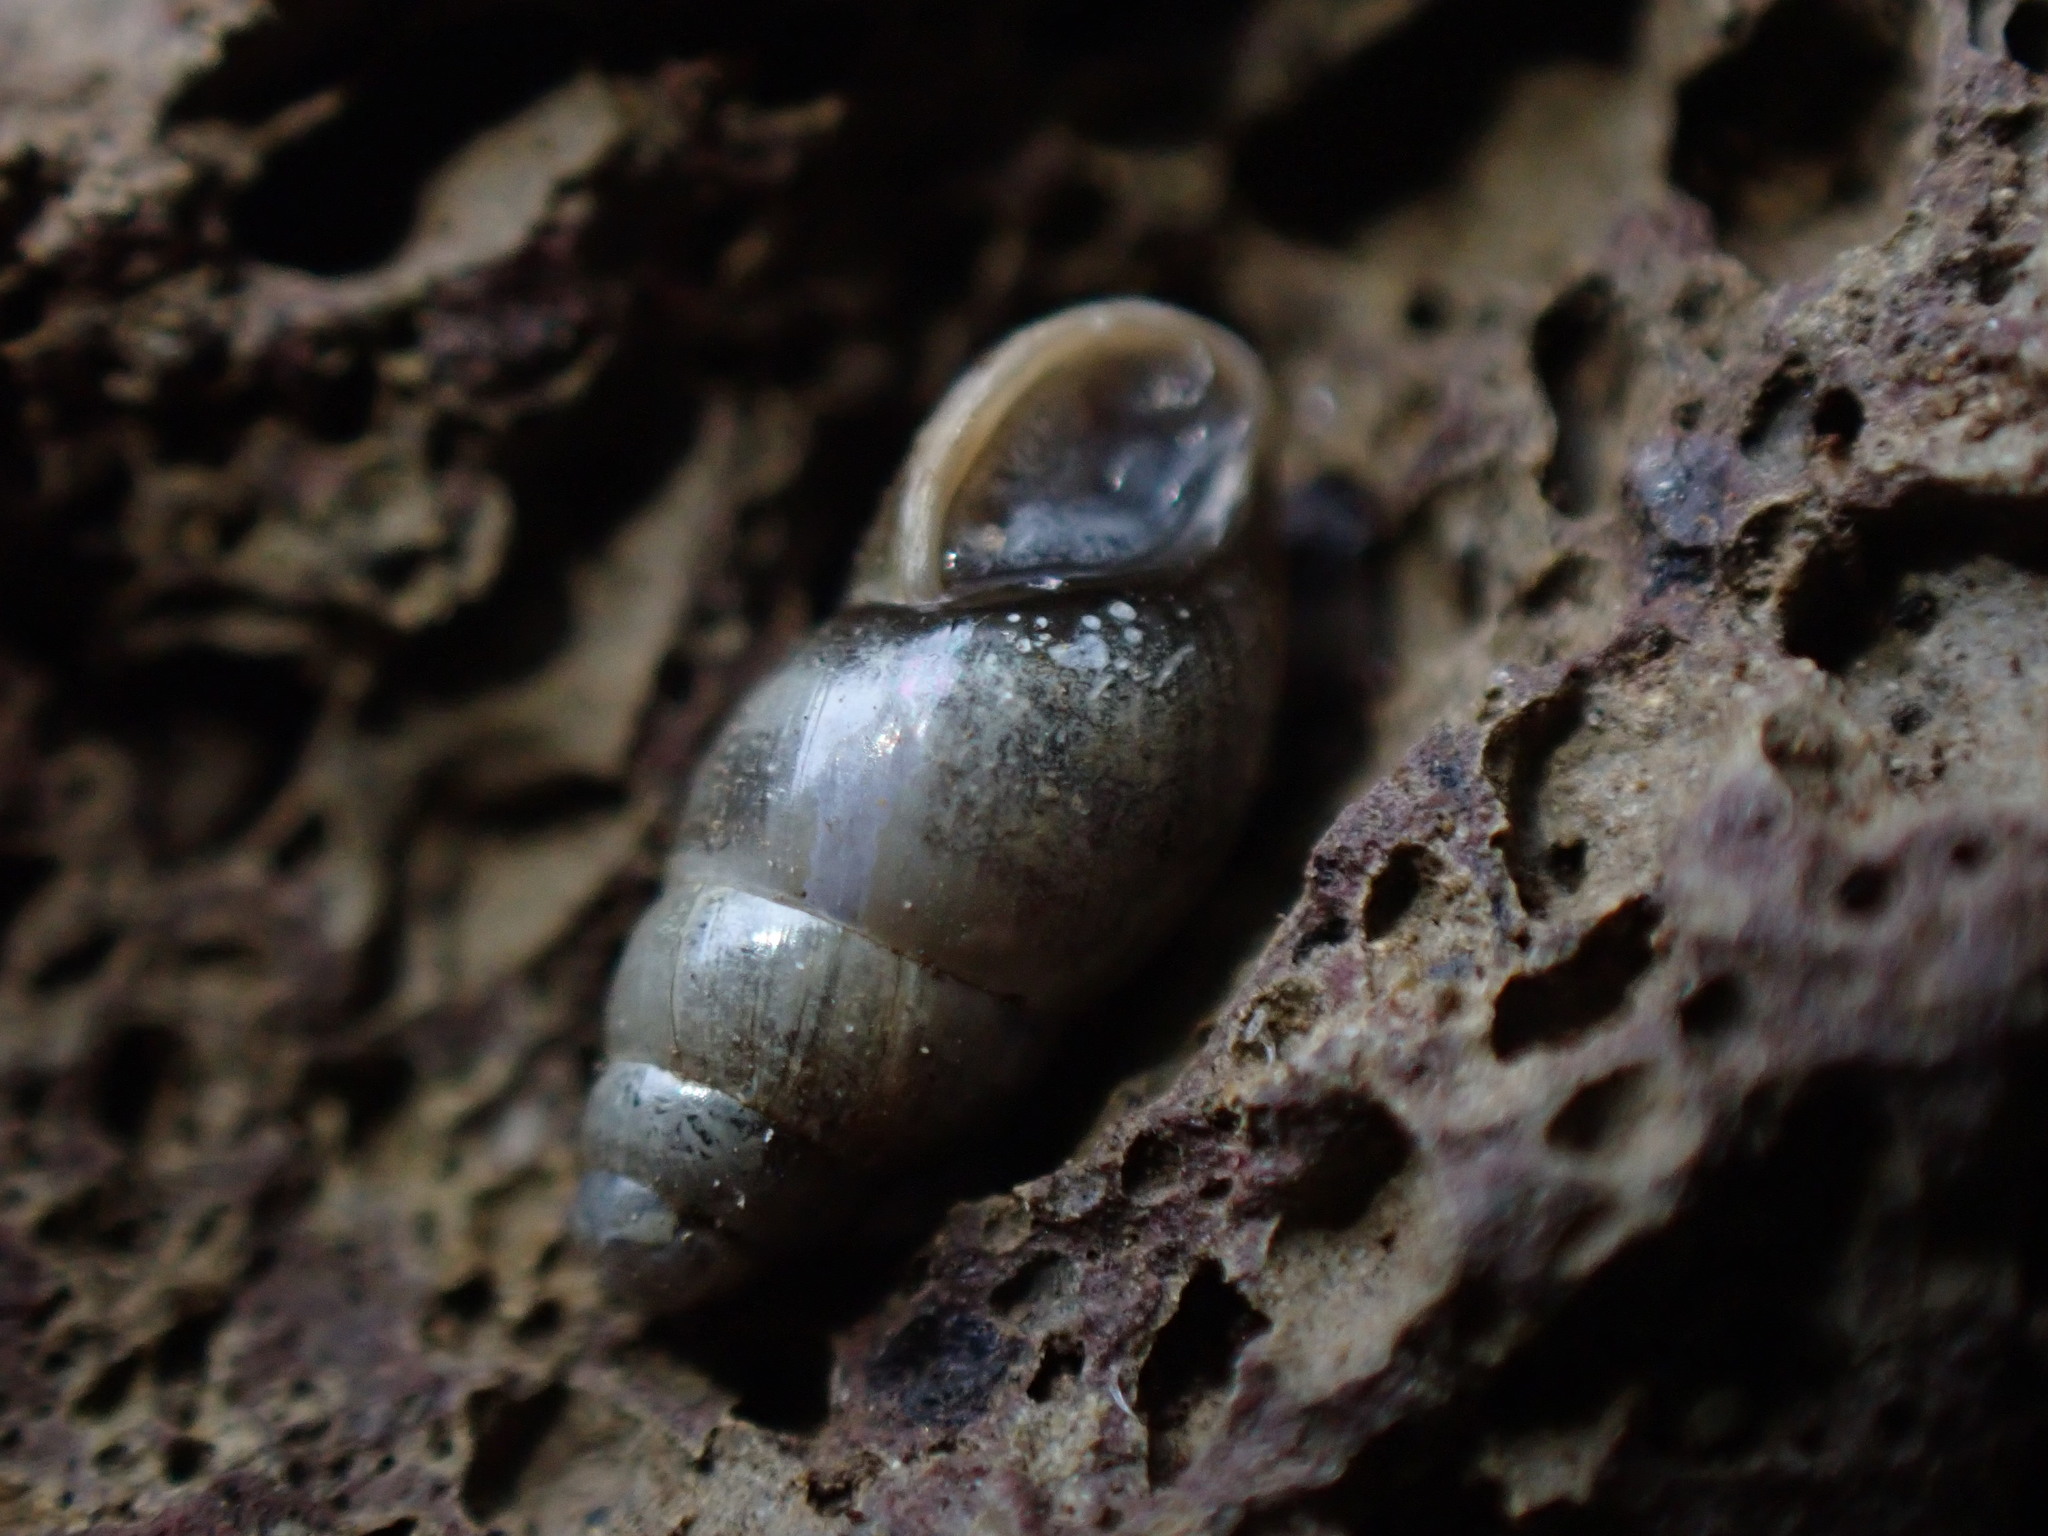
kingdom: Animalia
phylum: Mollusca
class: Gastropoda
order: Stylommatophora
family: Cochlicopidae
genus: Cochlicopa
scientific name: Cochlicopa lubrica
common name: Glossy pillar snail
